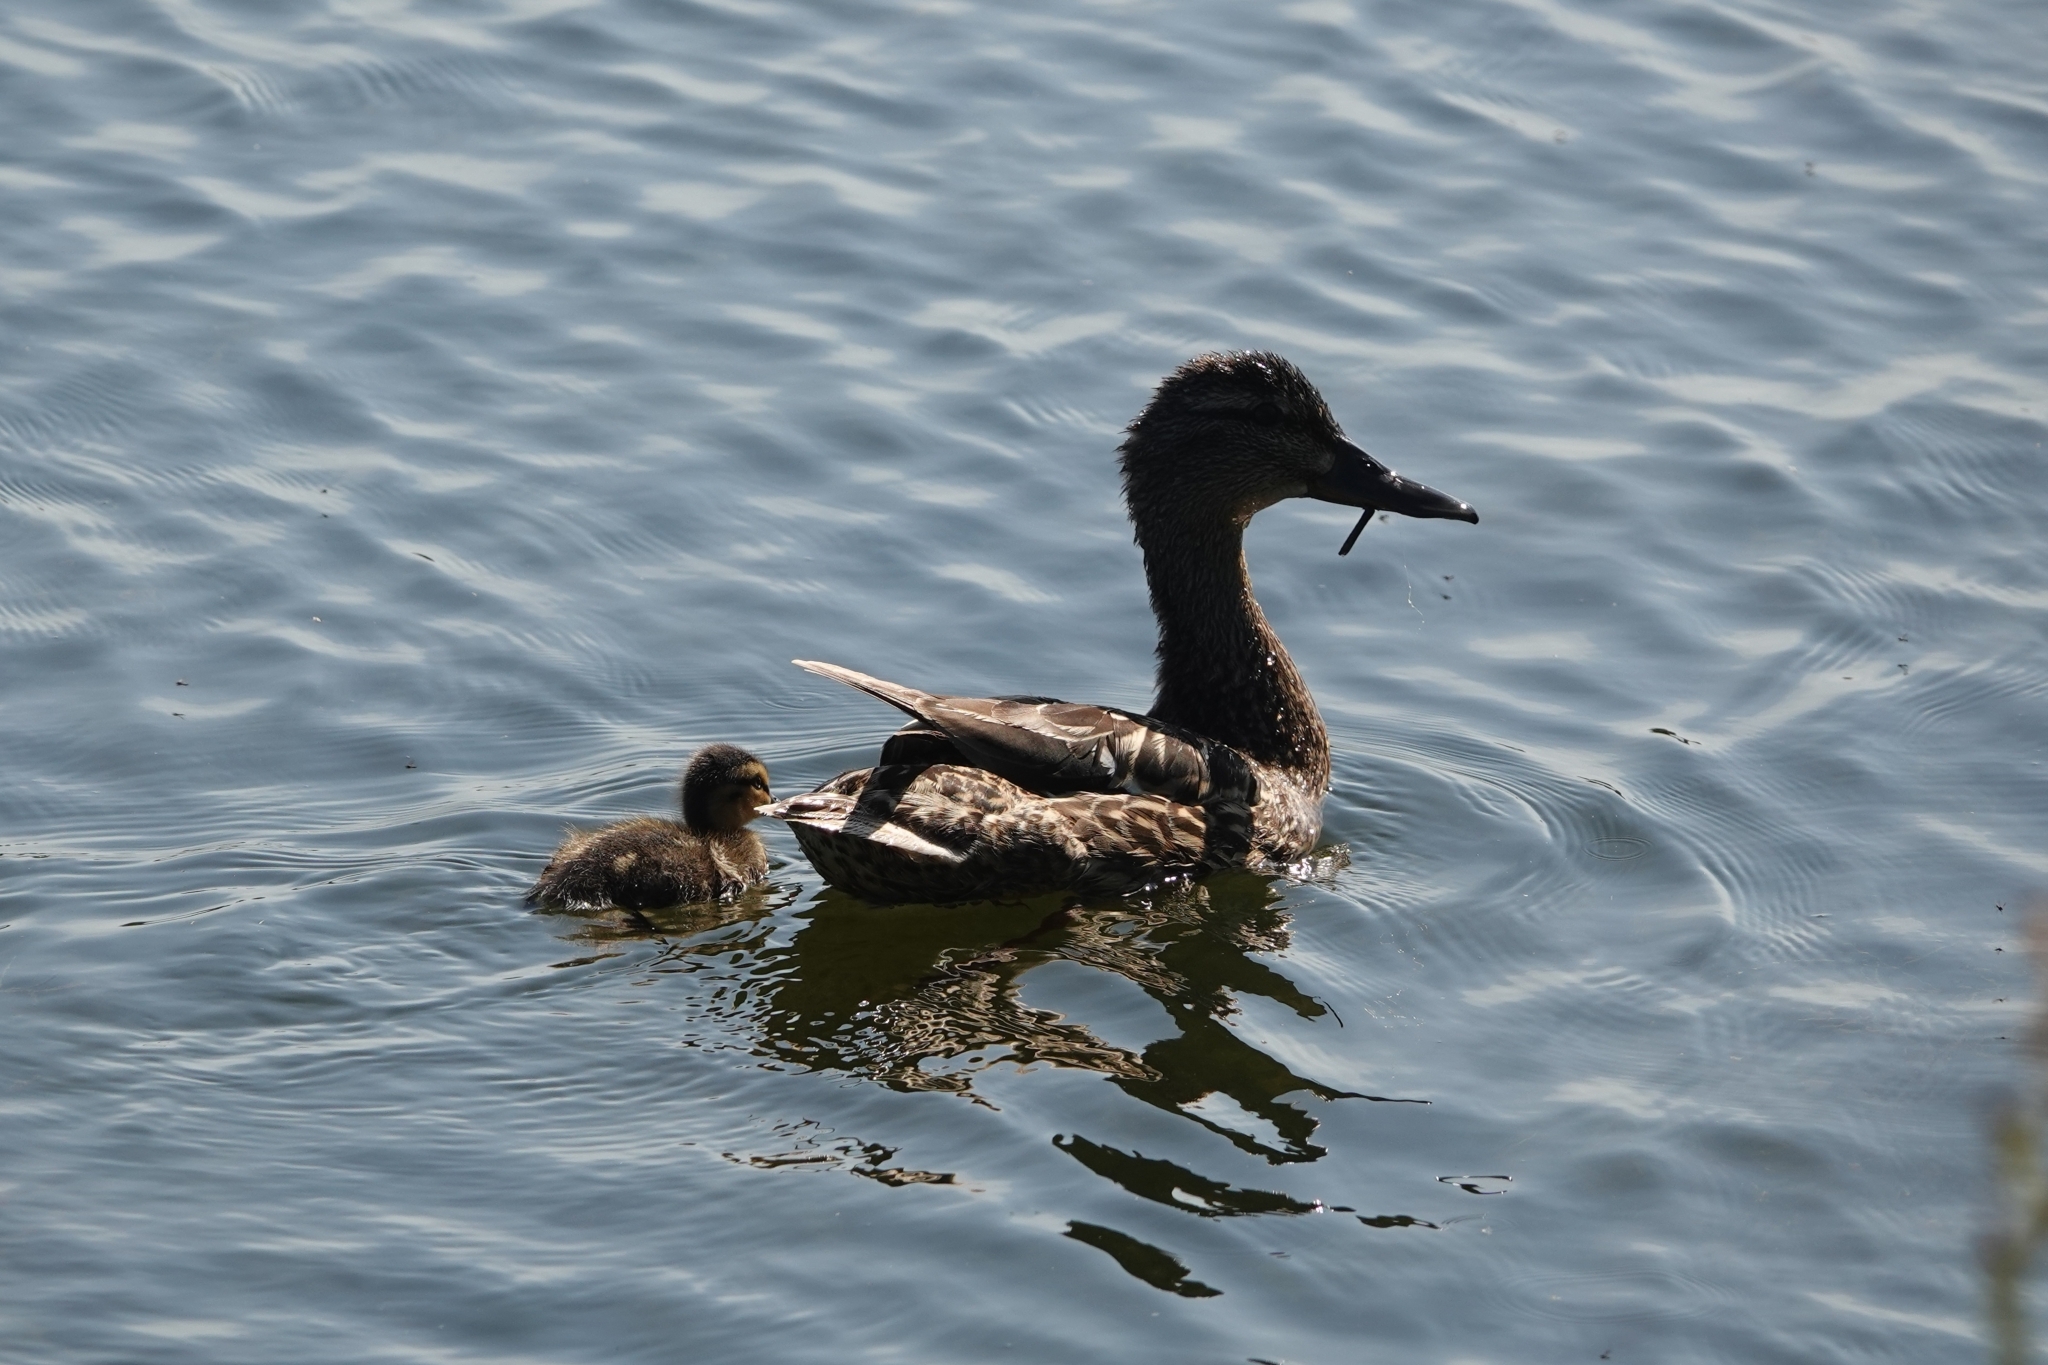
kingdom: Animalia
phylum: Chordata
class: Aves
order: Anseriformes
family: Anatidae
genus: Anas
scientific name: Anas platyrhynchos
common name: Mallard
